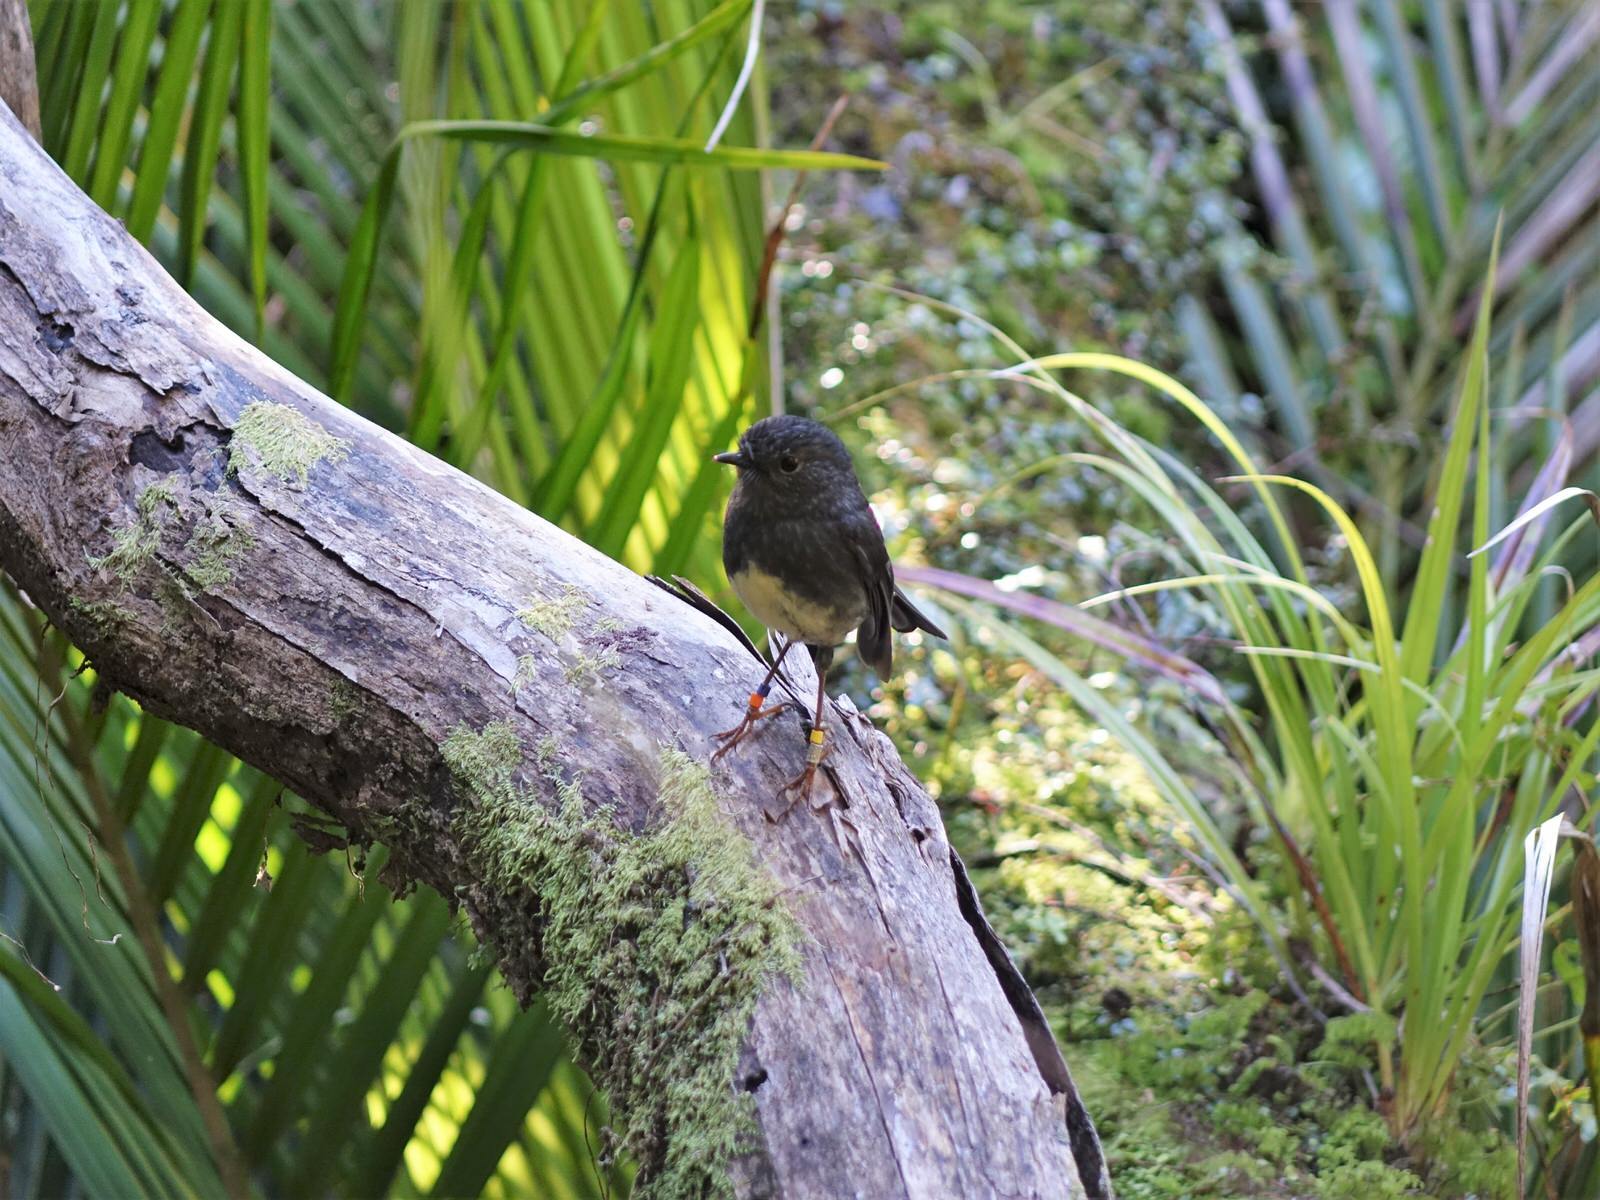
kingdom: Animalia
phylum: Chordata
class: Aves
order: Passeriformes
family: Petroicidae
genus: Petroica
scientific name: Petroica australis
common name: New zealand robin
